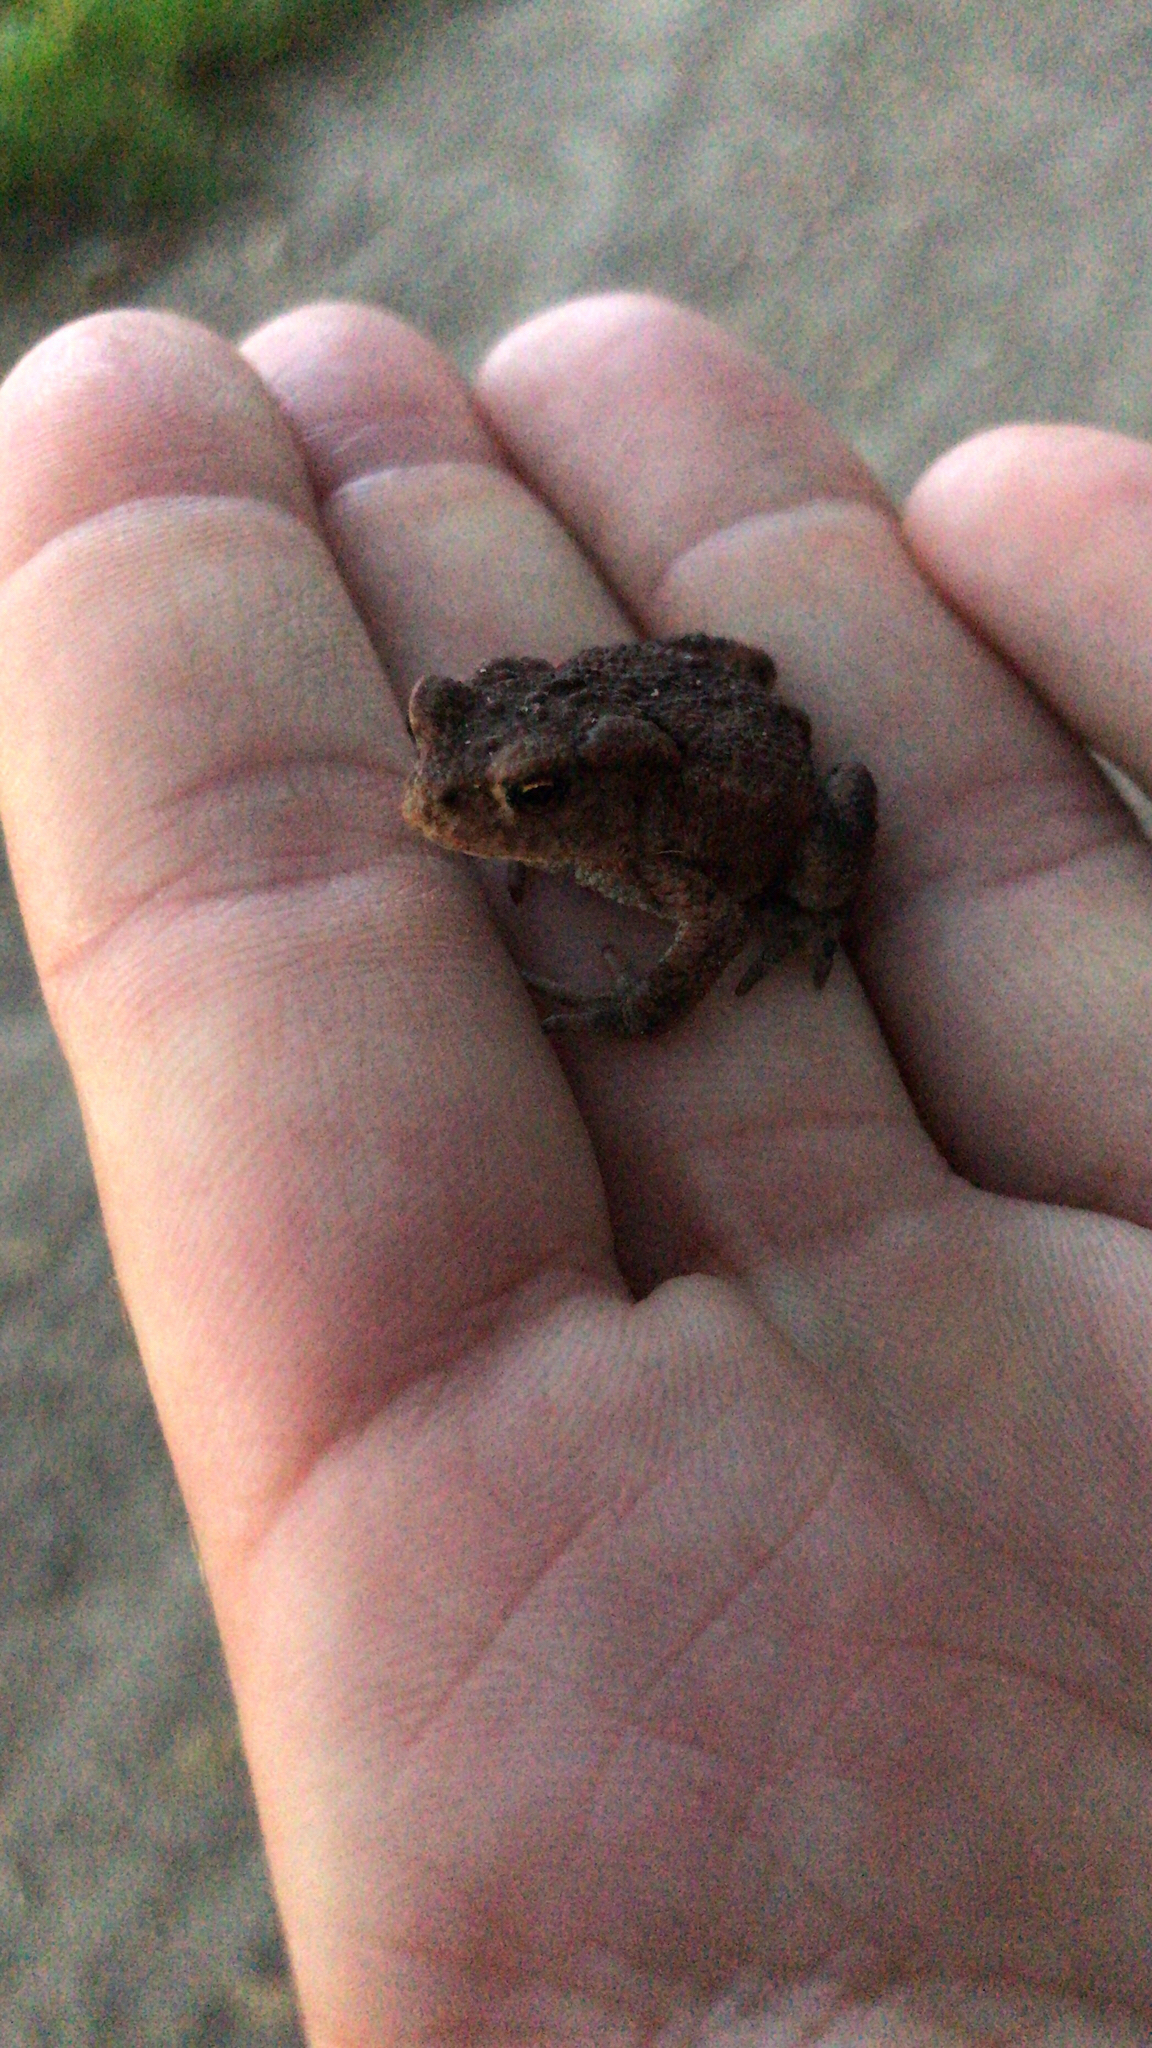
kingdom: Animalia
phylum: Chordata
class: Amphibia
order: Anura
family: Bufonidae
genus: Bufo
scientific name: Bufo bufo
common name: Common toad
